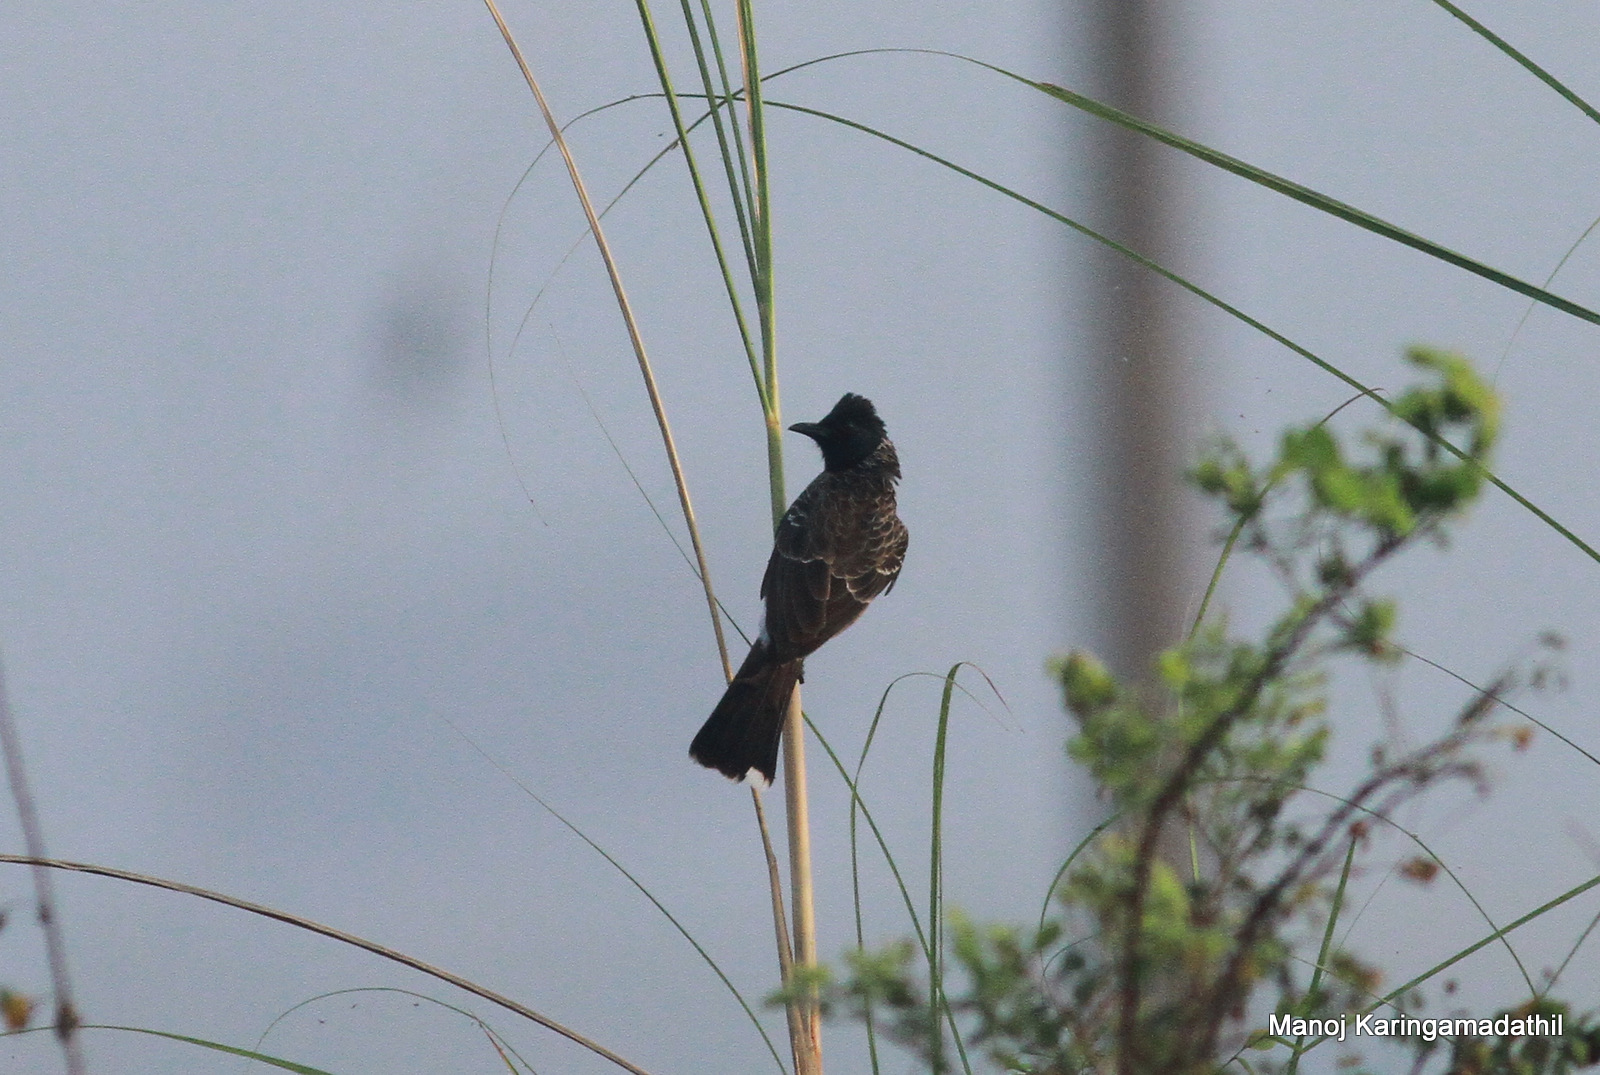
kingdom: Animalia
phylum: Chordata
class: Aves
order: Passeriformes
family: Pycnonotidae
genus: Pycnonotus
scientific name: Pycnonotus cafer
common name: Red-vented bulbul
